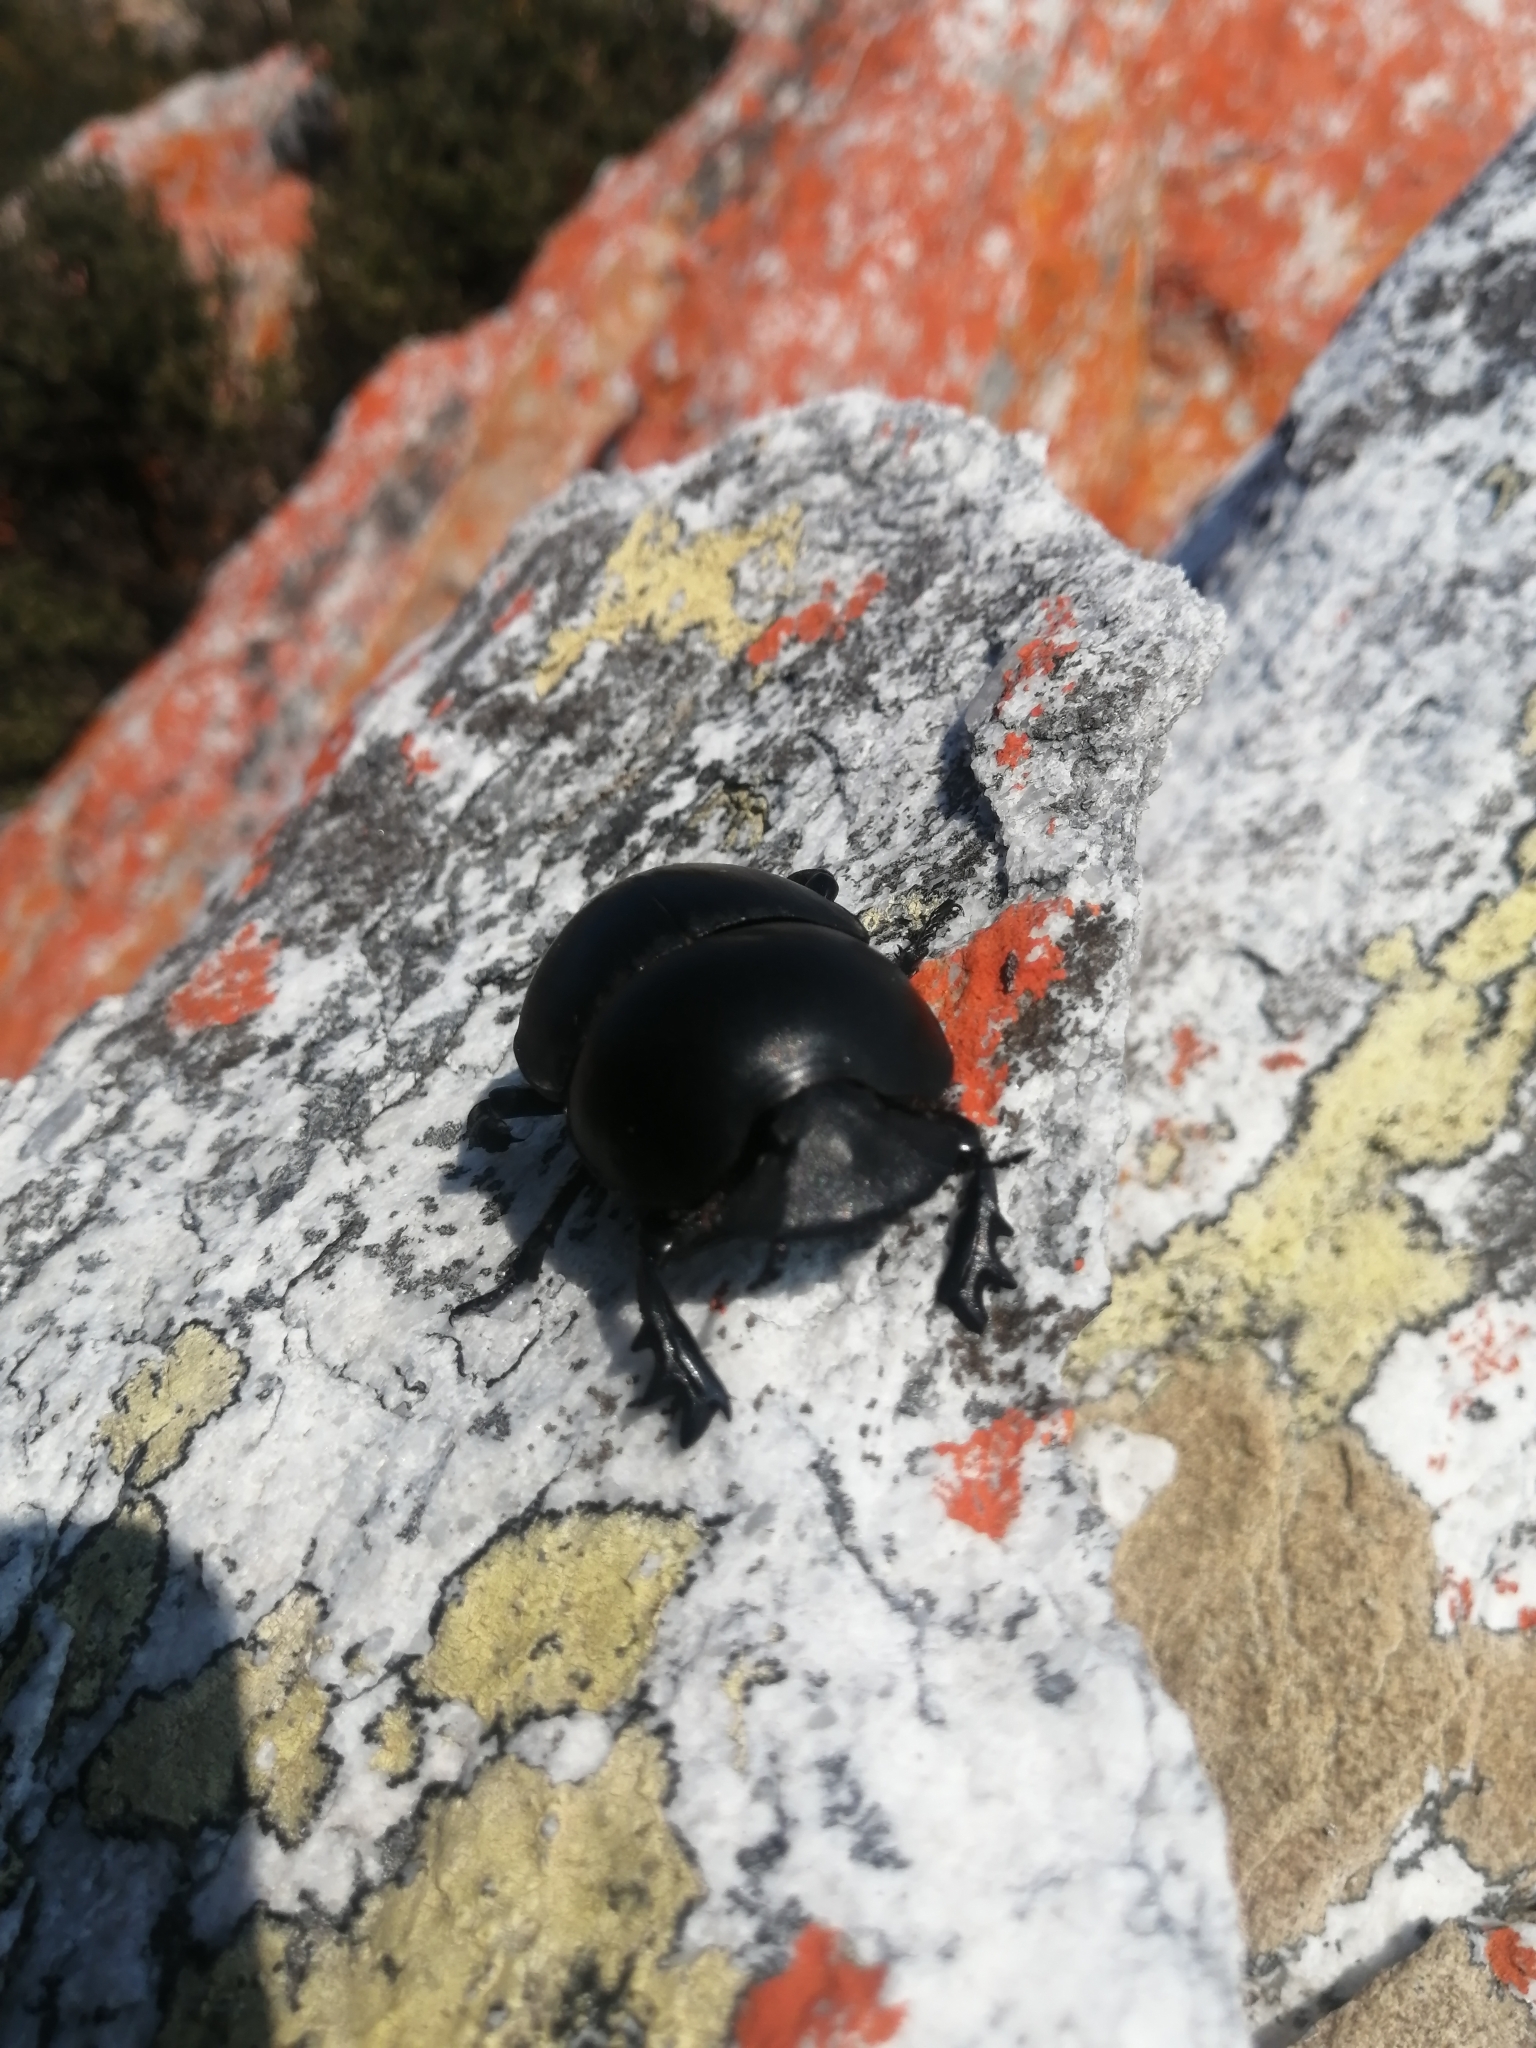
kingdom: Animalia
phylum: Arthropoda
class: Insecta
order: Coleoptera
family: Scarabaeidae
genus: Circellium
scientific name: Circellium bacchus
